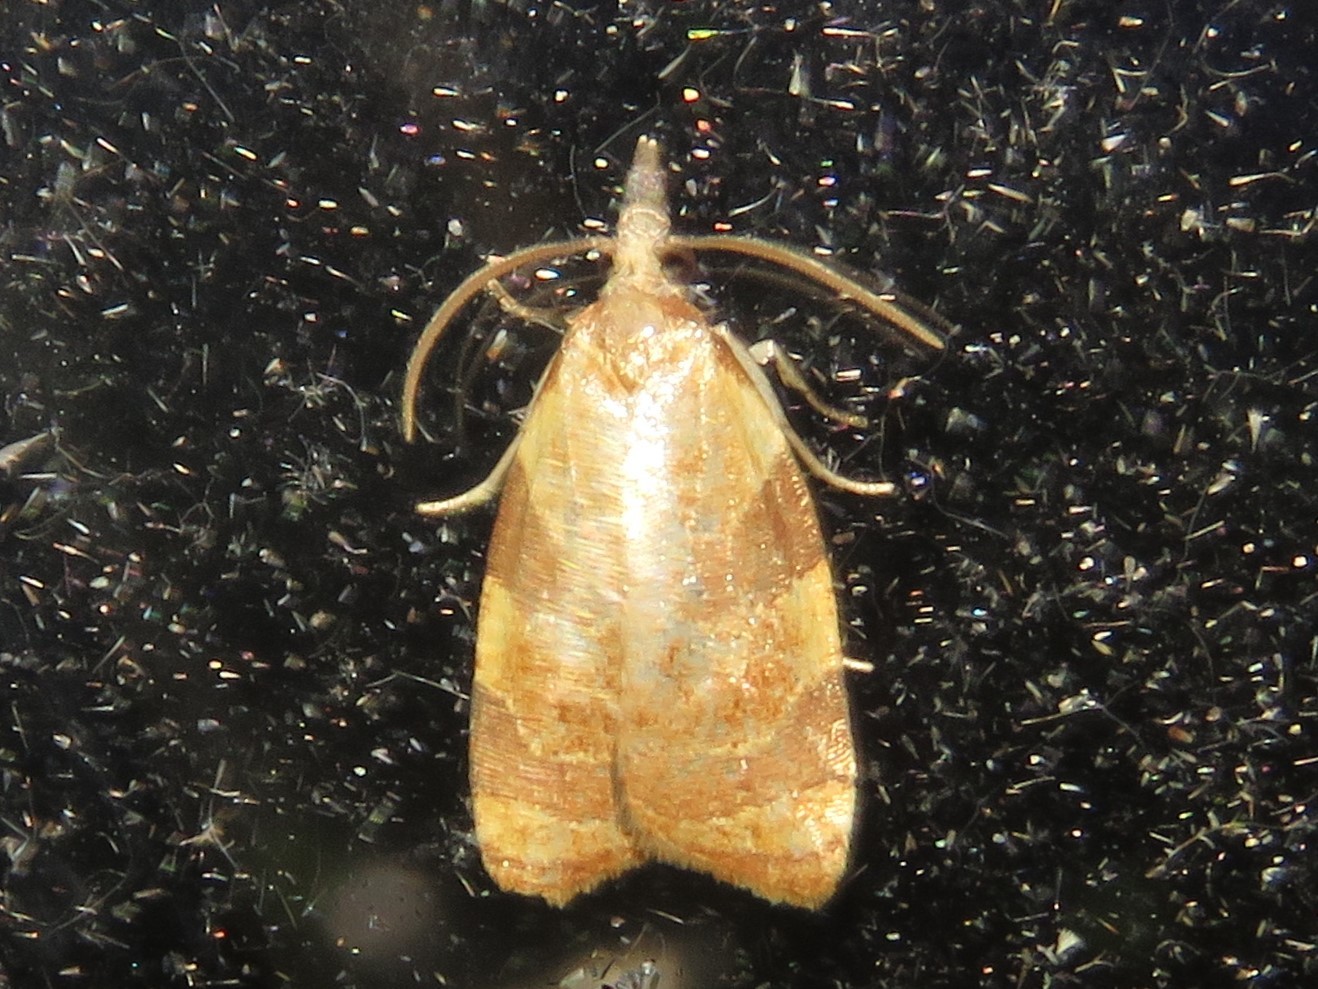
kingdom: Animalia
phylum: Arthropoda
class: Insecta
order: Lepidoptera
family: Tortricidae
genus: Cenopis
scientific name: Cenopis diluticostana
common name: Spring dead-leaf roller moth
